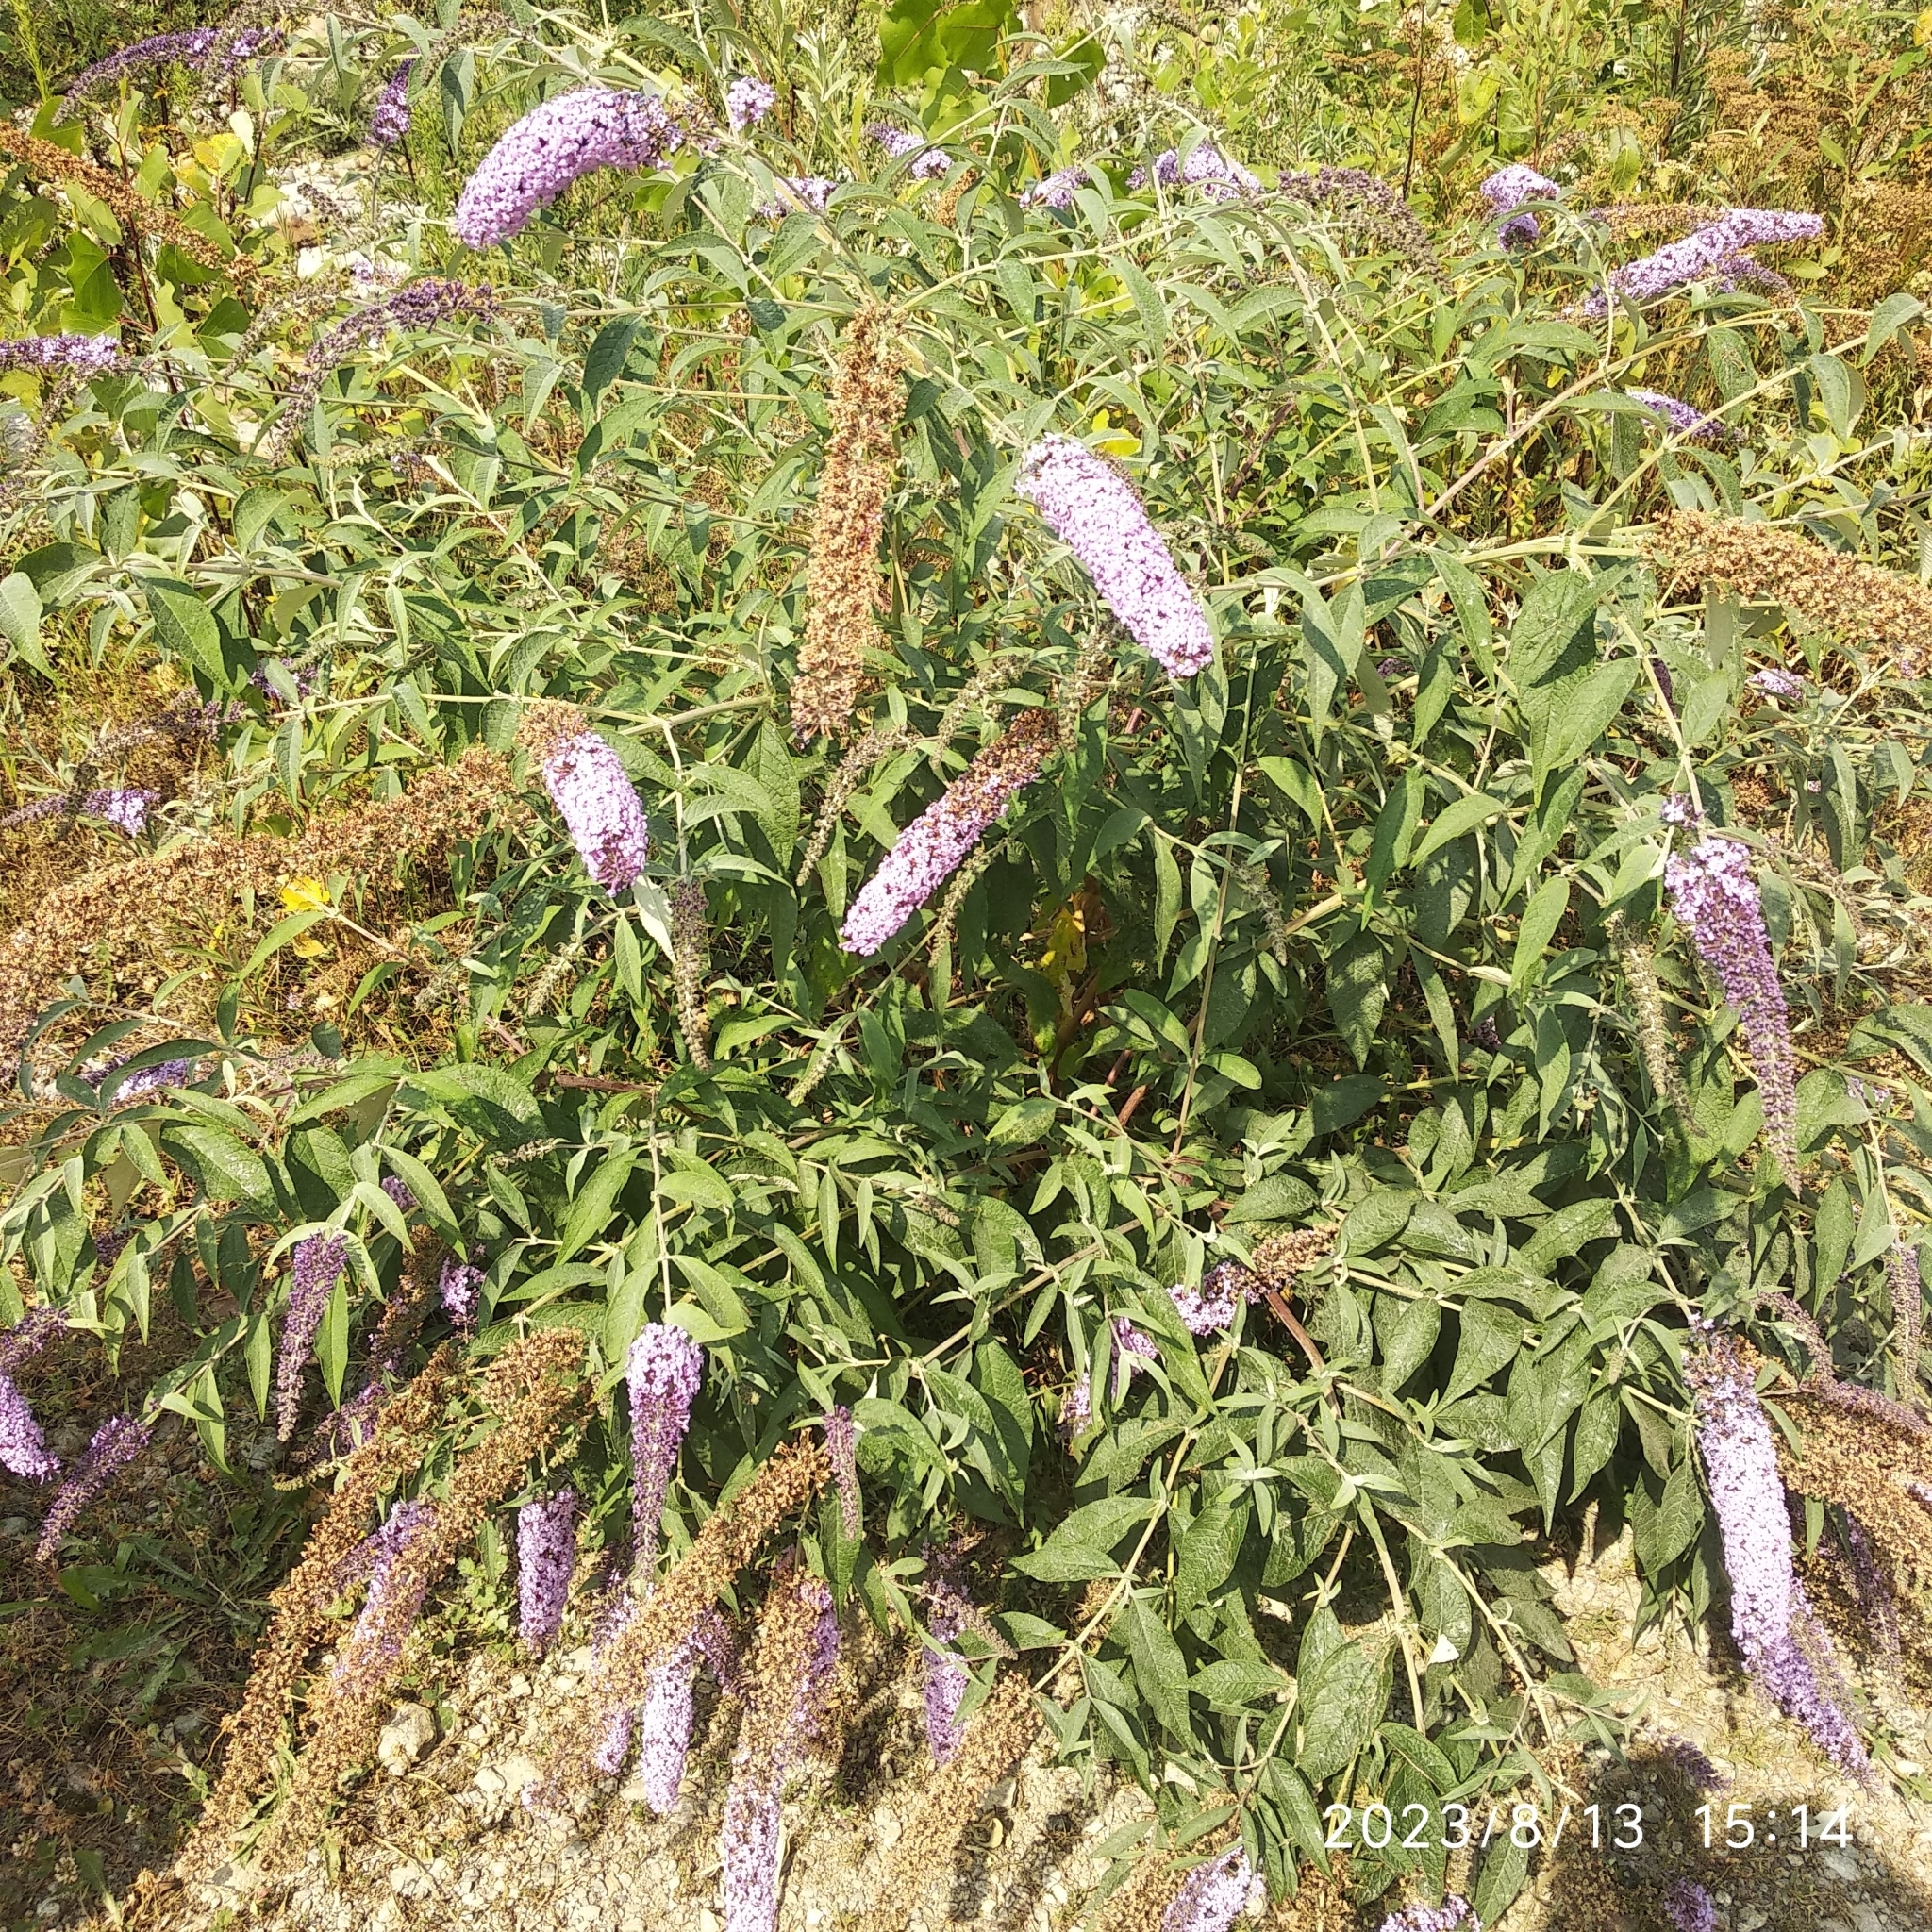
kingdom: Plantae
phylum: Tracheophyta
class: Magnoliopsida
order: Lamiales
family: Scrophulariaceae
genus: Buddleja
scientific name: Buddleja davidii
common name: Butterfly-bush
